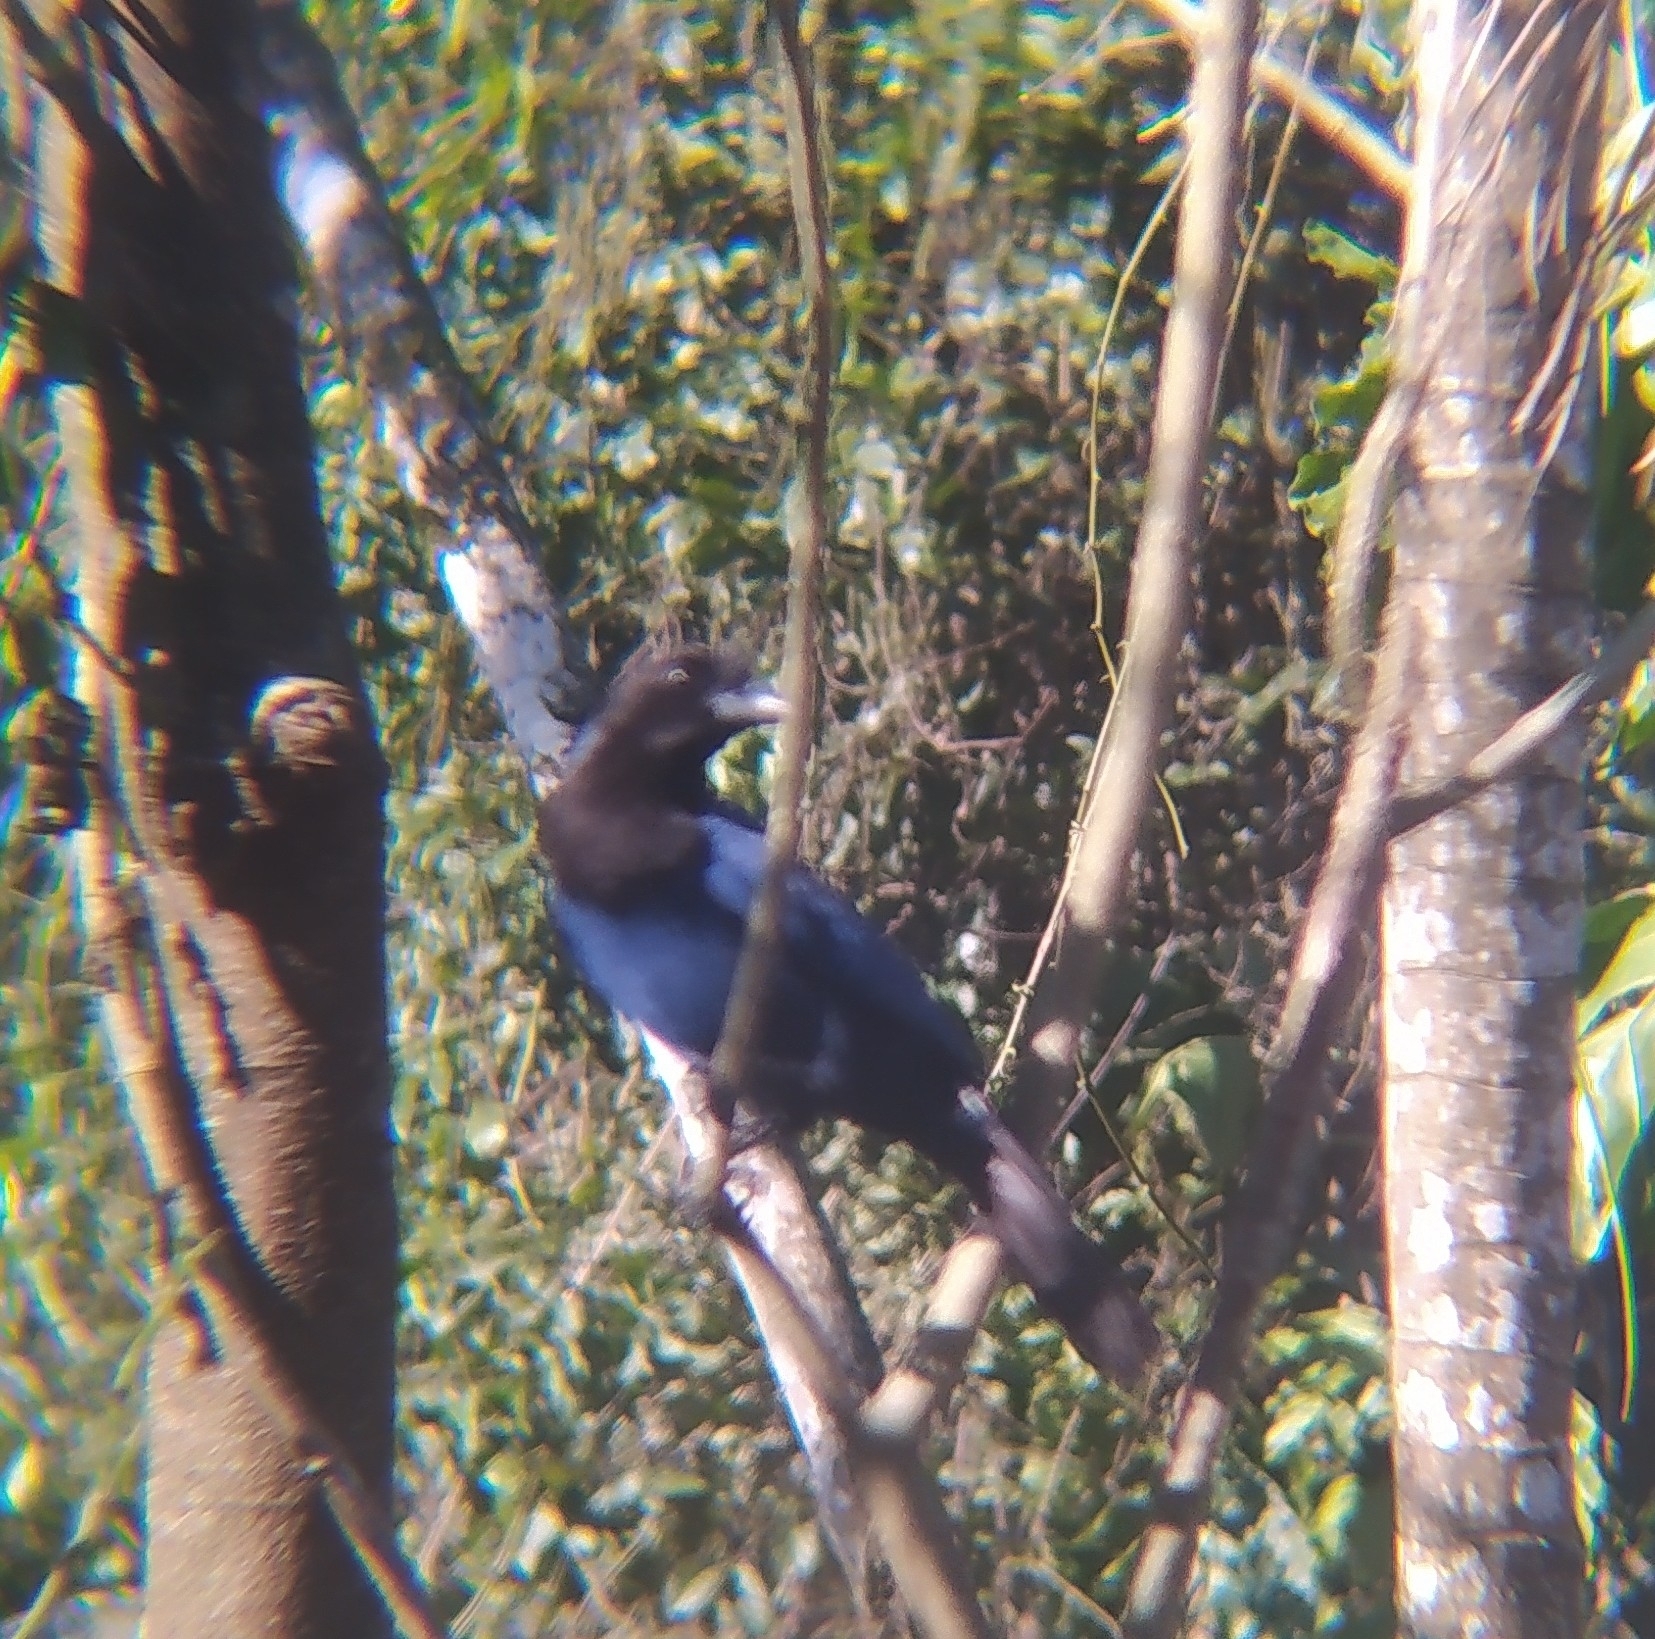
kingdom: Animalia
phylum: Chordata
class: Aves
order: Passeriformes
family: Corvidae
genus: Cyanocorax
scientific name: Cyanocorax caeruleus
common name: Azure jay
